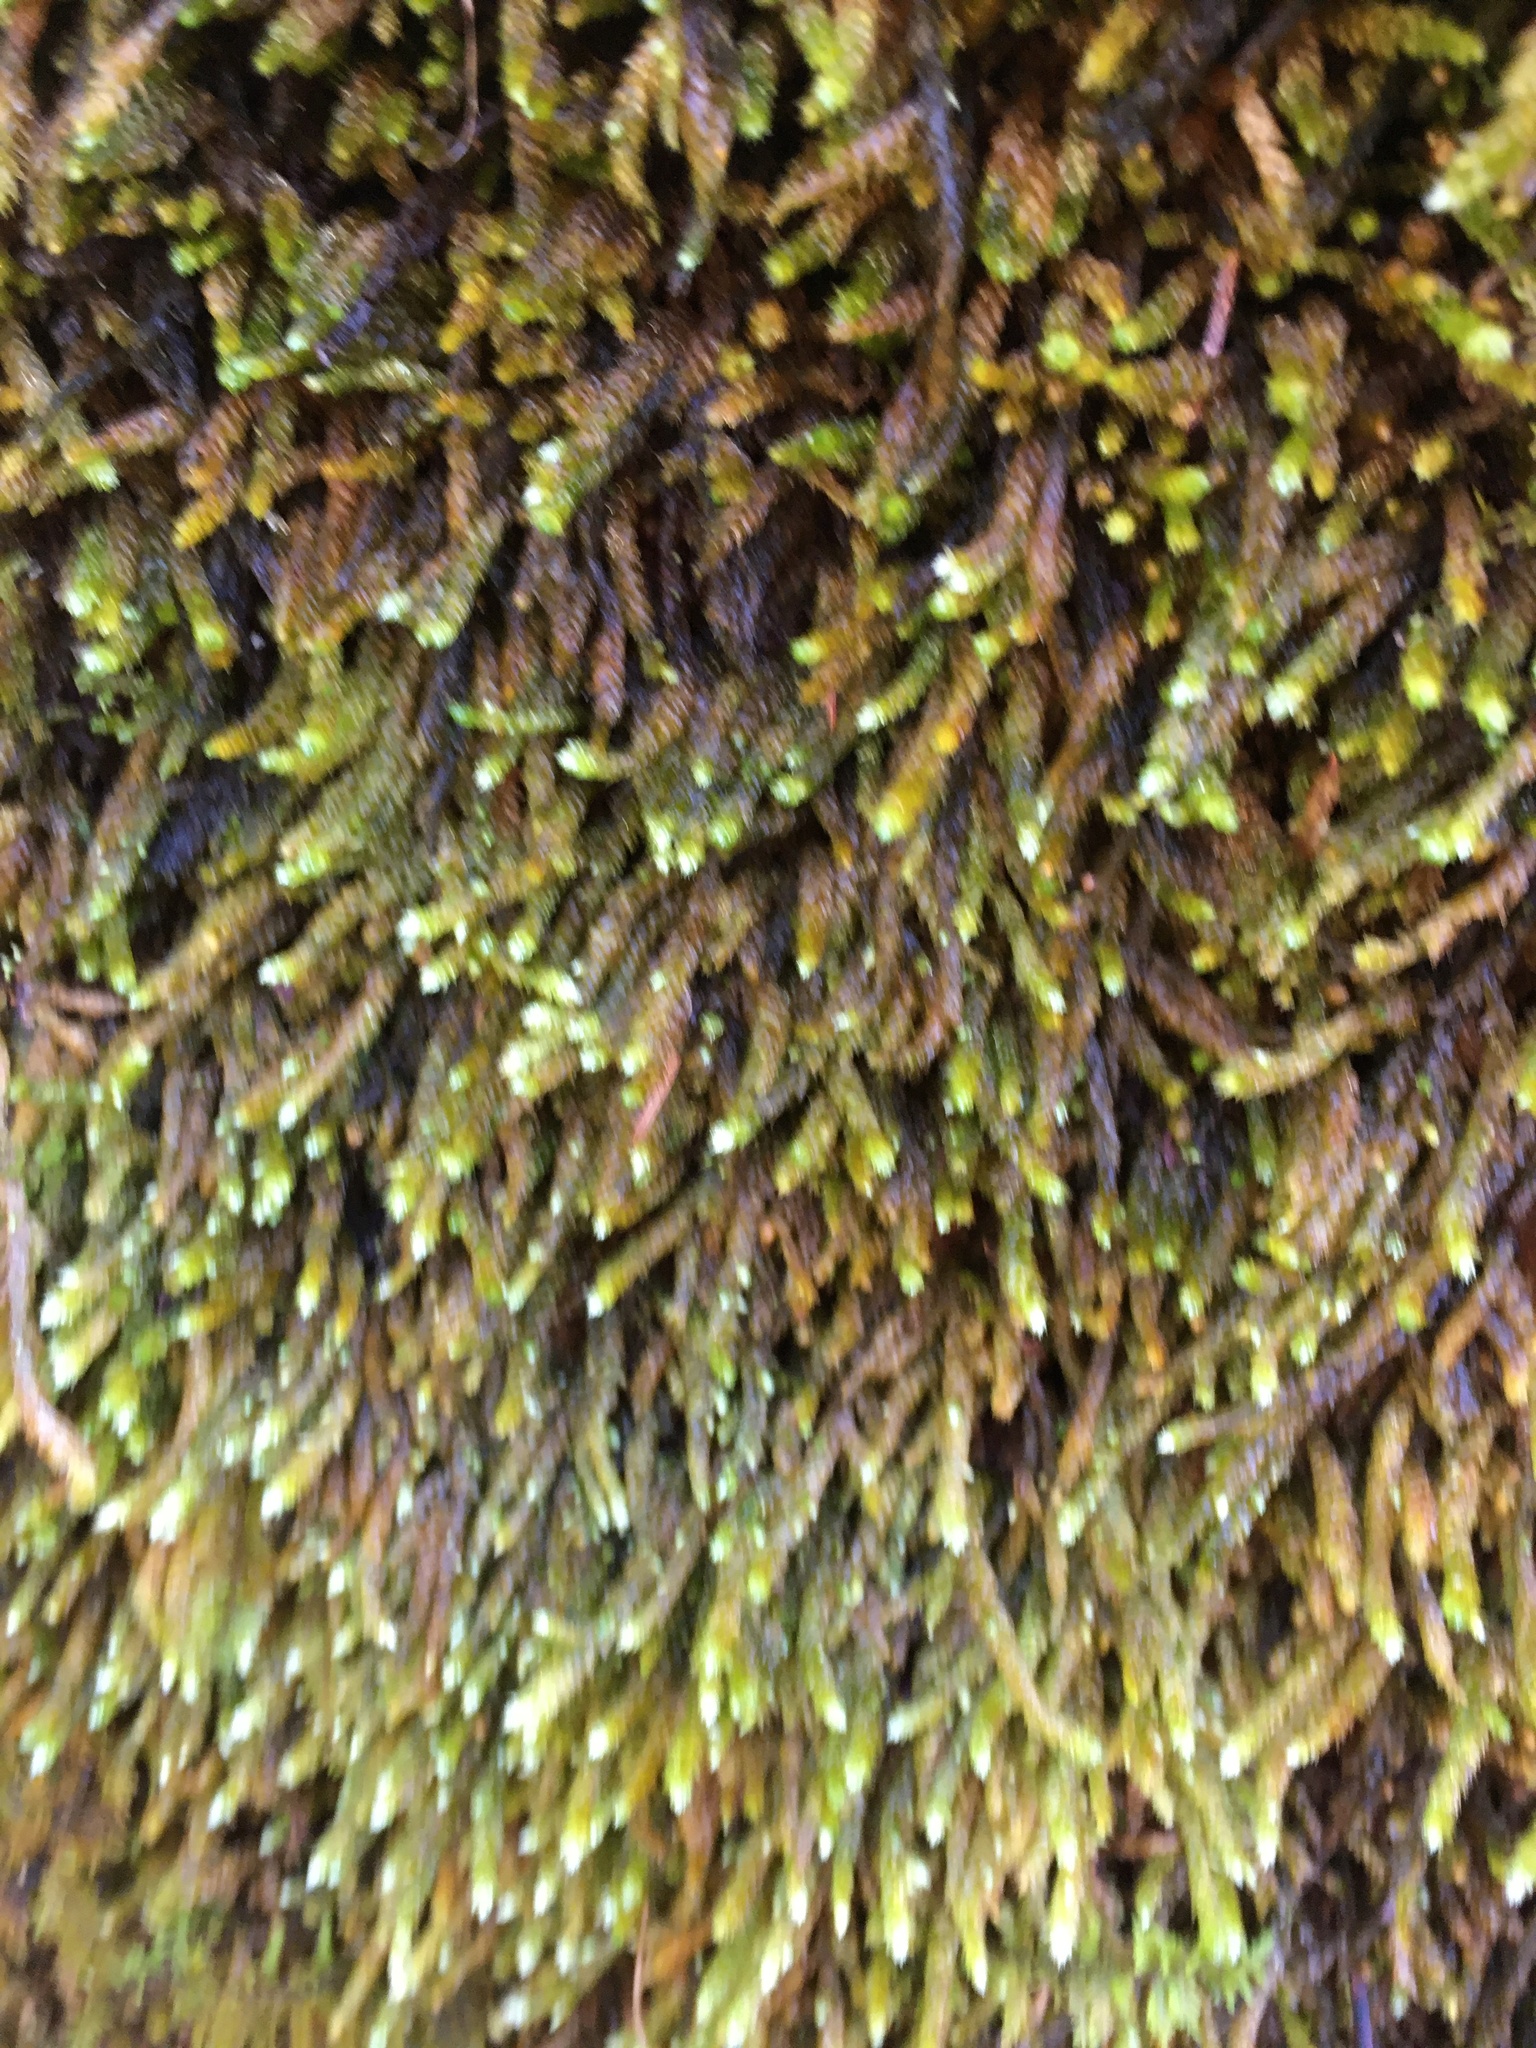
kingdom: Plantae
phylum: Bryophyta
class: Bryopsida
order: Hypnales
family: Brachytheciaceae
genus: Bryoandersonia
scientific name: Bryoandersonia illecebra
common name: Spoon-leaved moss
